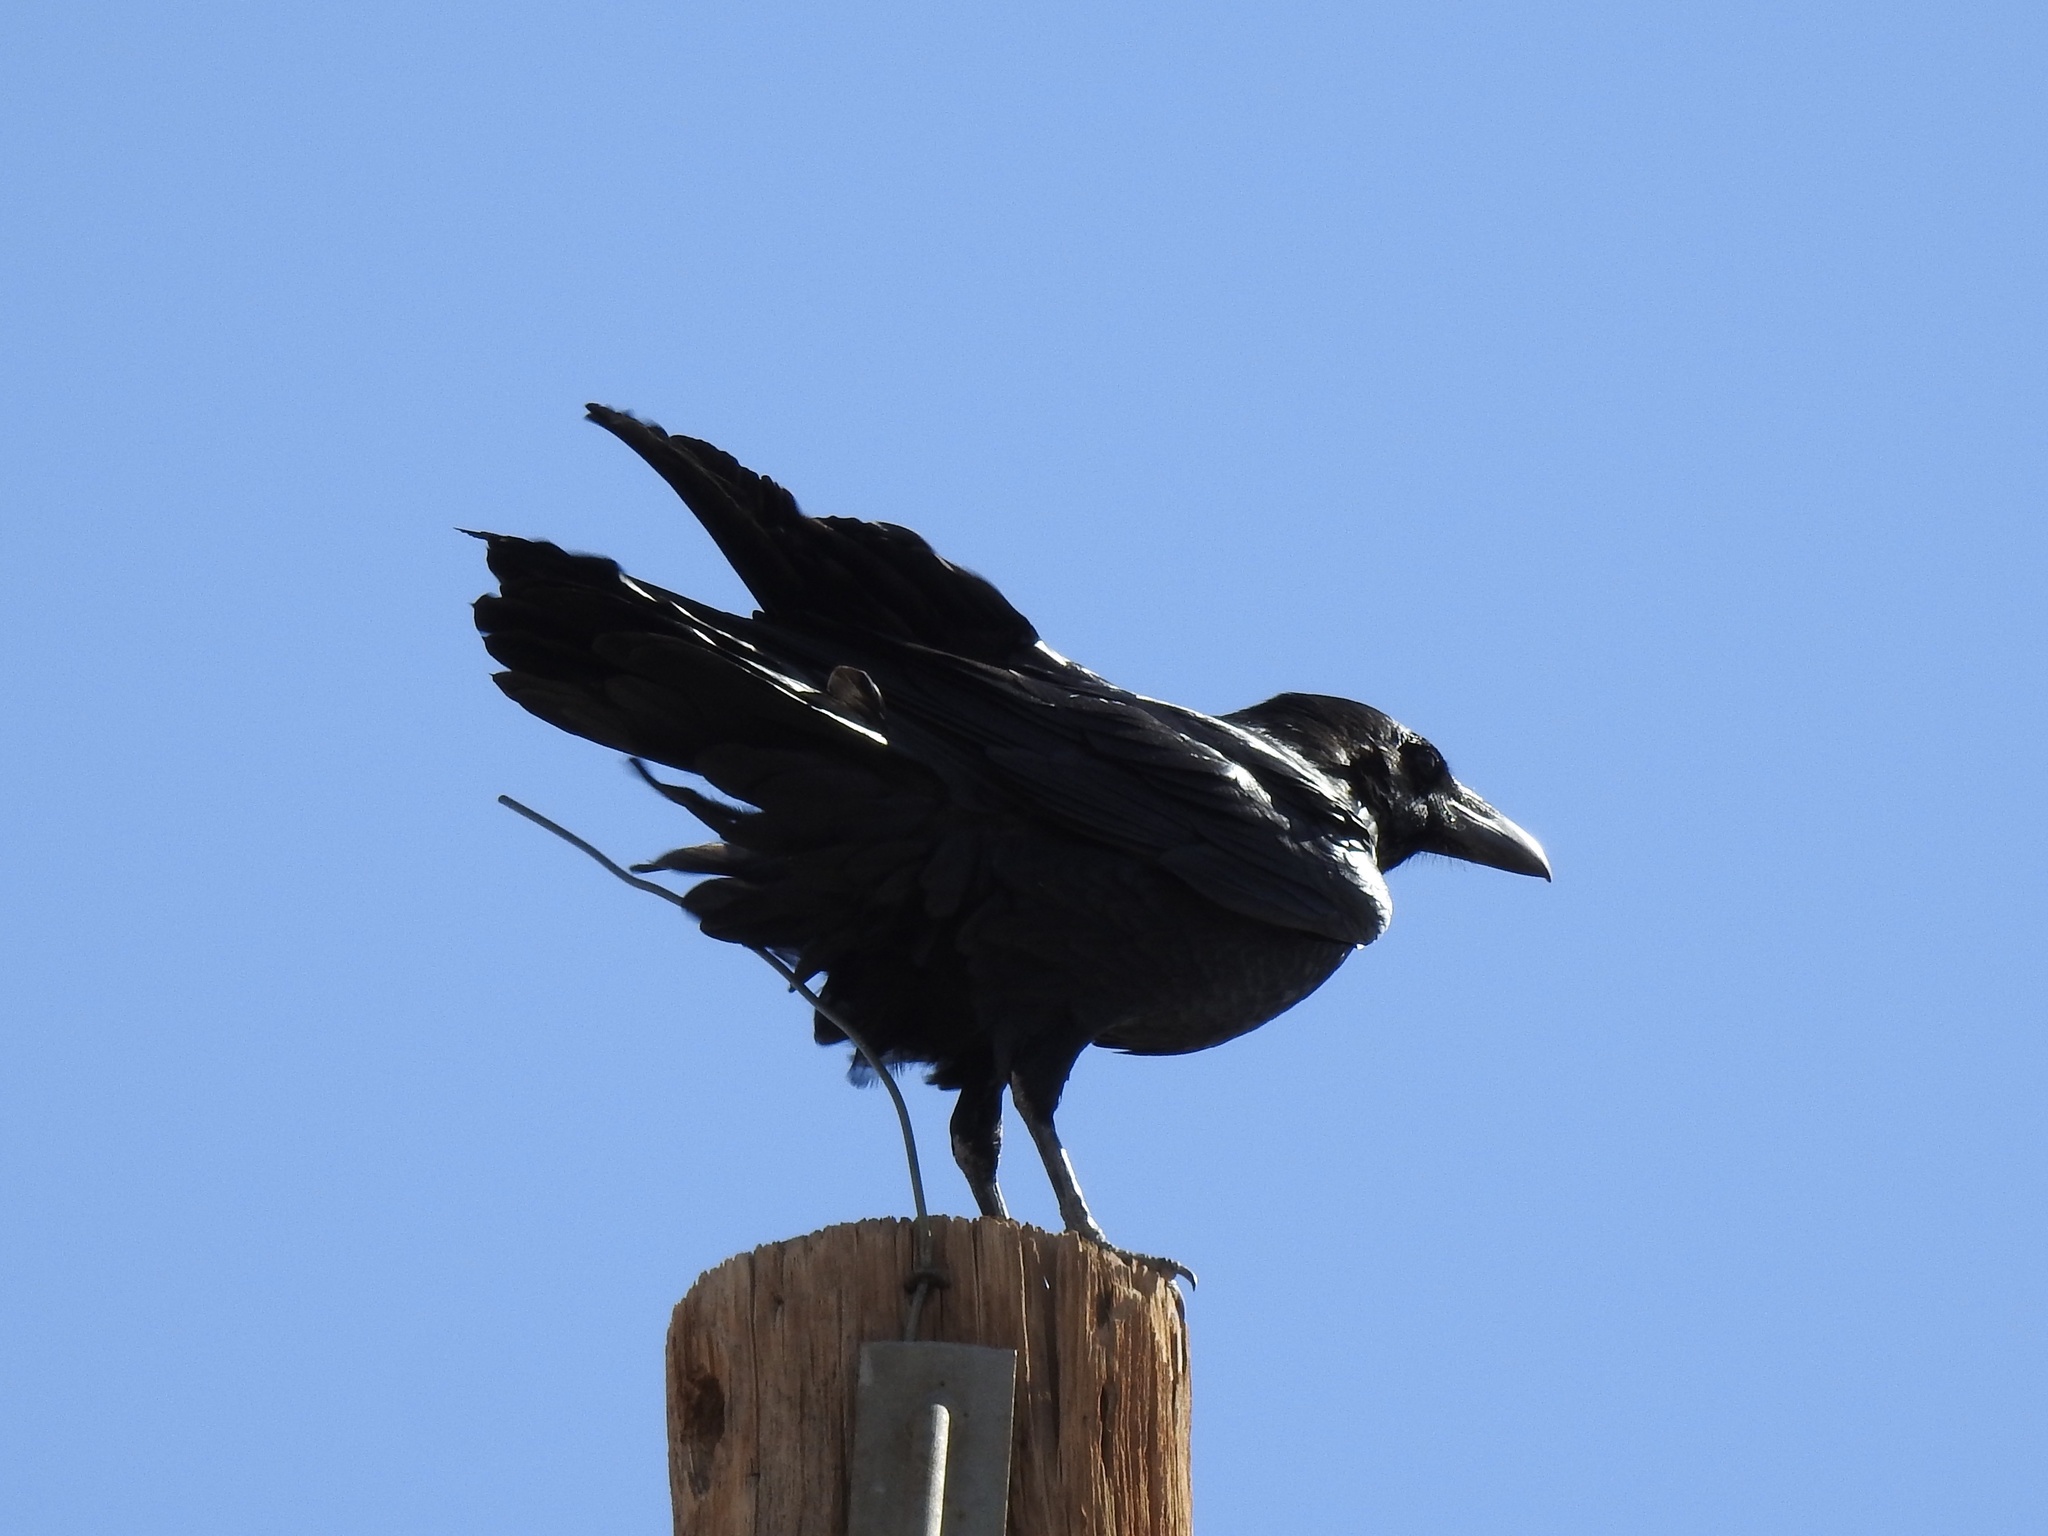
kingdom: Animalia
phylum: Chordata
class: Aves
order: Passeriformes
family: Corvidae
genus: Corvus
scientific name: Corvus corax
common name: Common raven
